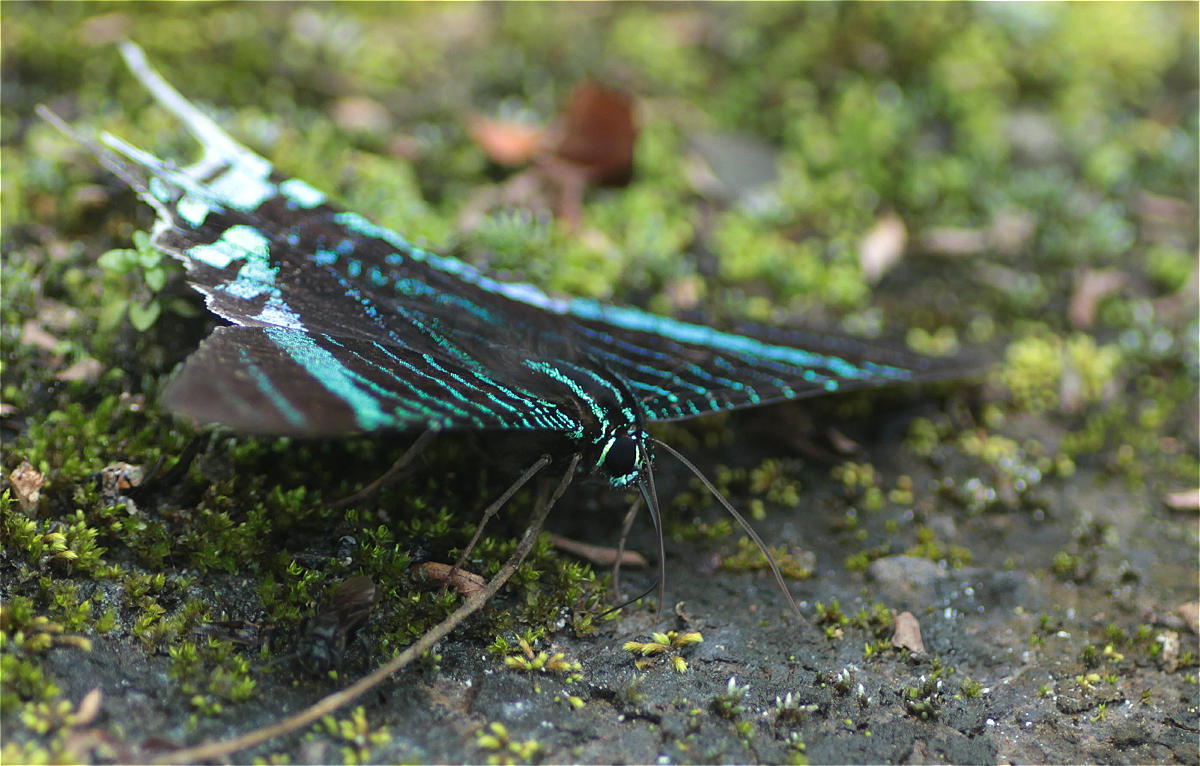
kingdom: Animalia
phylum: Arthropoda
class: Insecta
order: Lepidoptera
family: Uraniidae
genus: Urania
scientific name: Urania leilus
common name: Peacock moth
